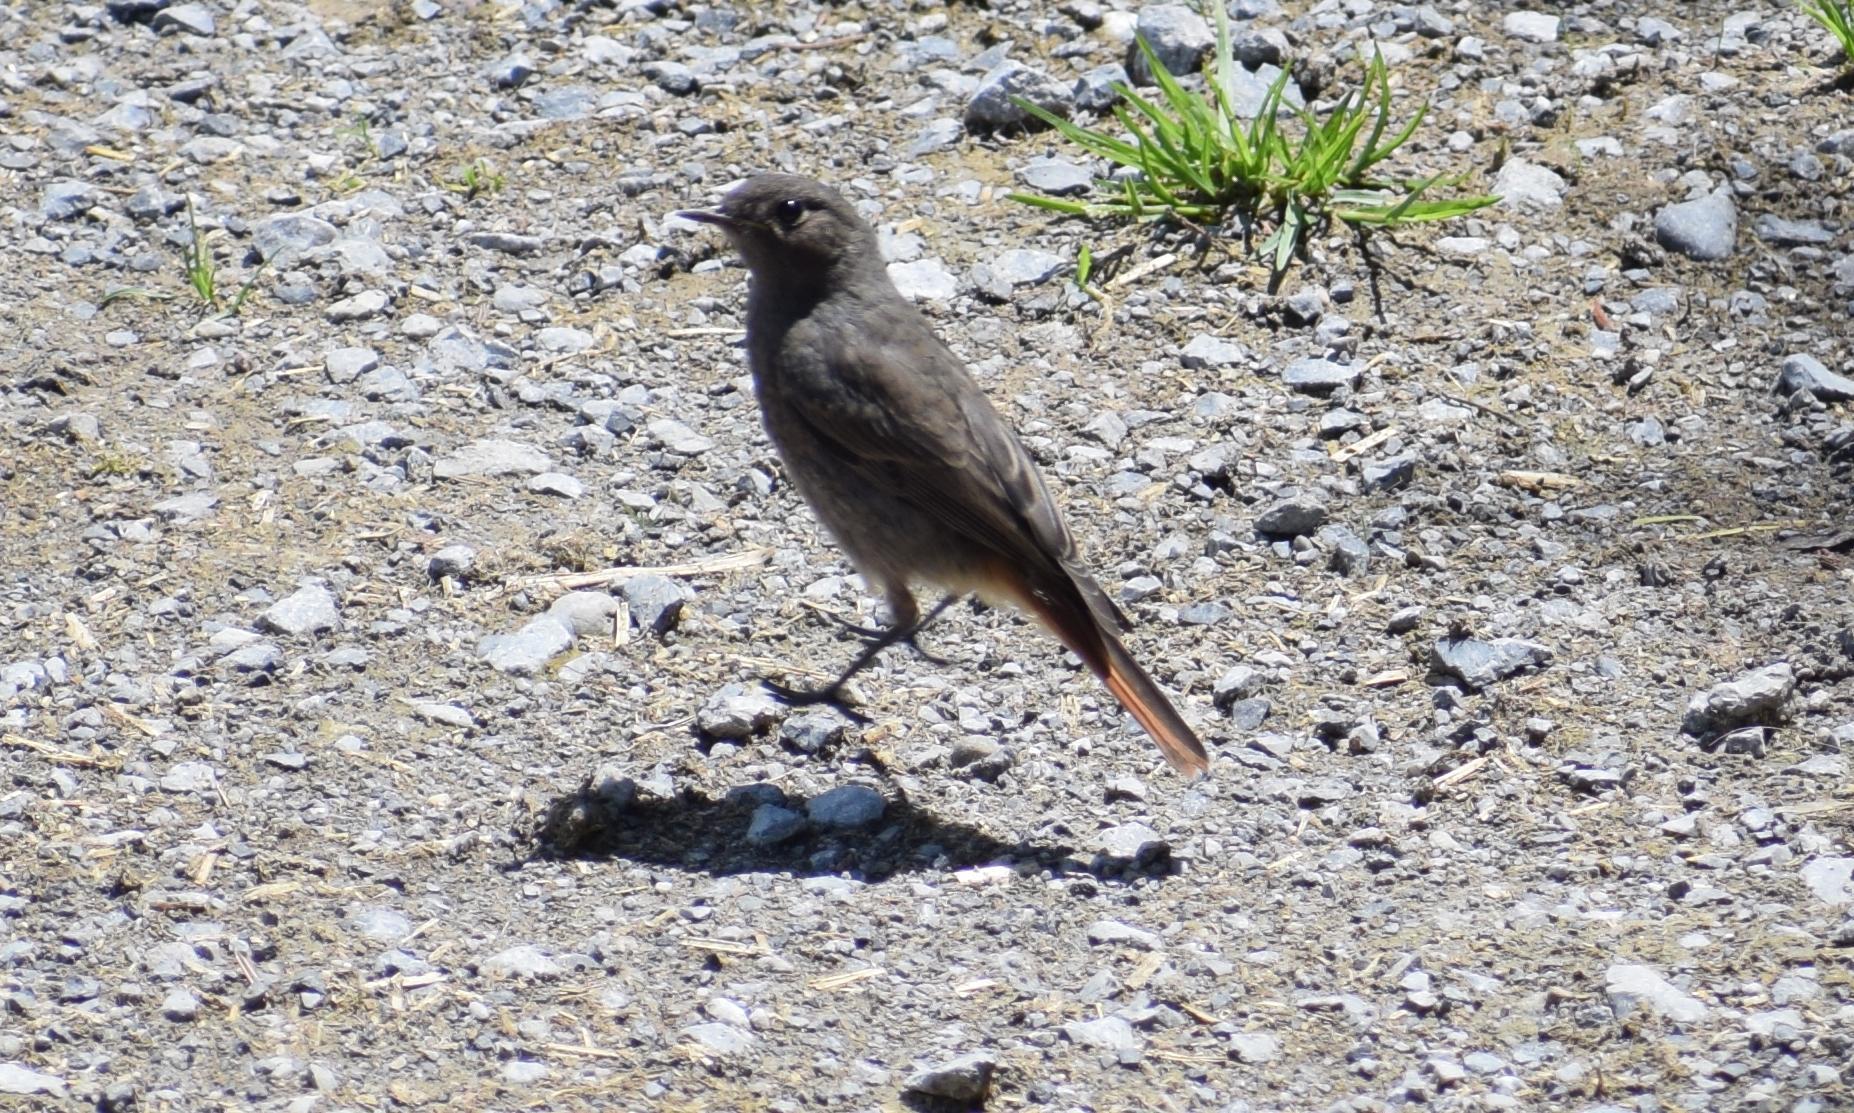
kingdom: Animalia
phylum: Chordata
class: Aves
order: Passeriformes
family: Muscicapidae
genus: Phoenicurus
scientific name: Phoenicurus ochruros
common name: Black redstart
